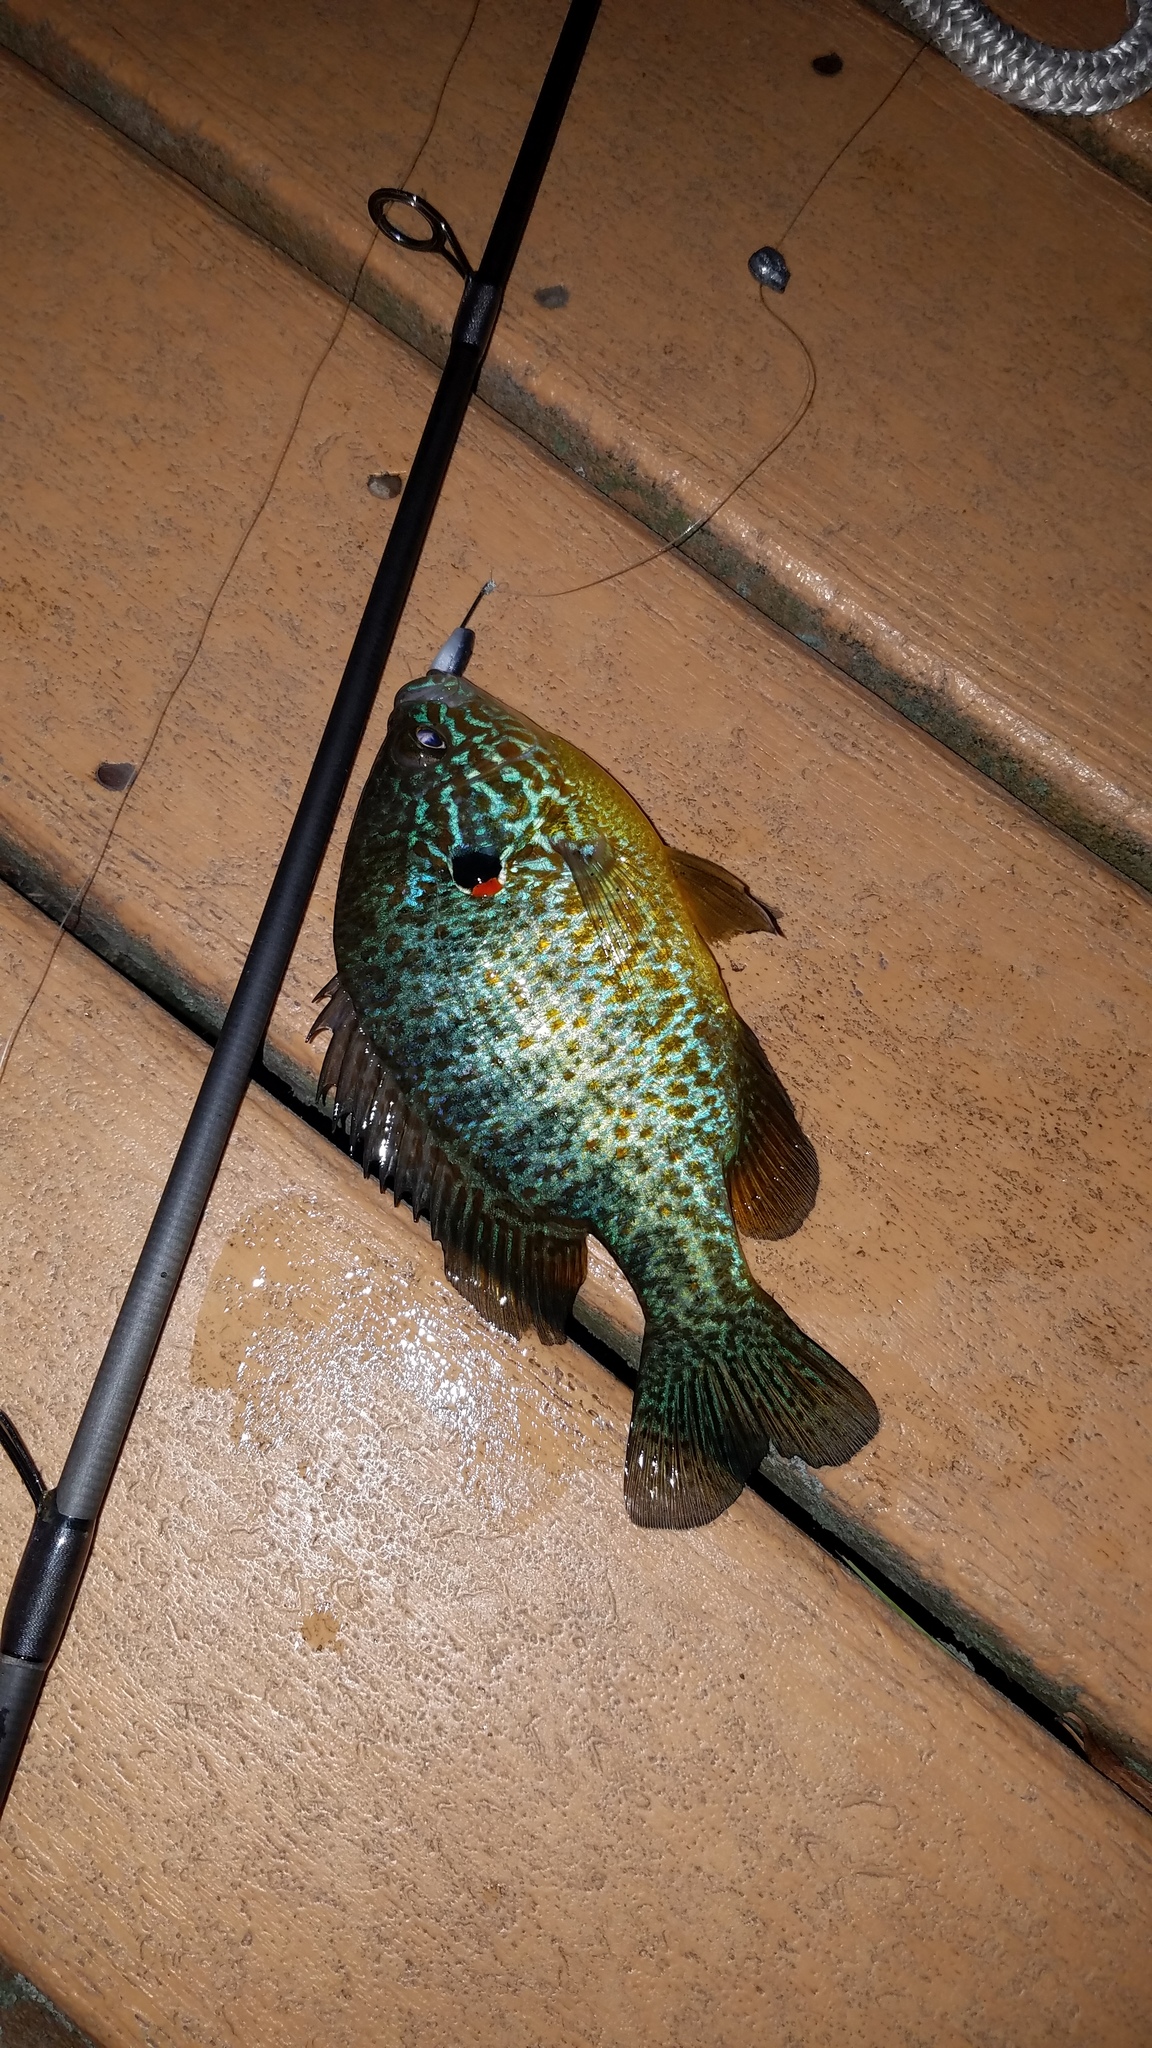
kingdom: Animalia
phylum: Chordata
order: Perciformes
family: Centrarchidae
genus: Lepomis
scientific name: Lepomis gibbosus
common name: Pumpkinseed
